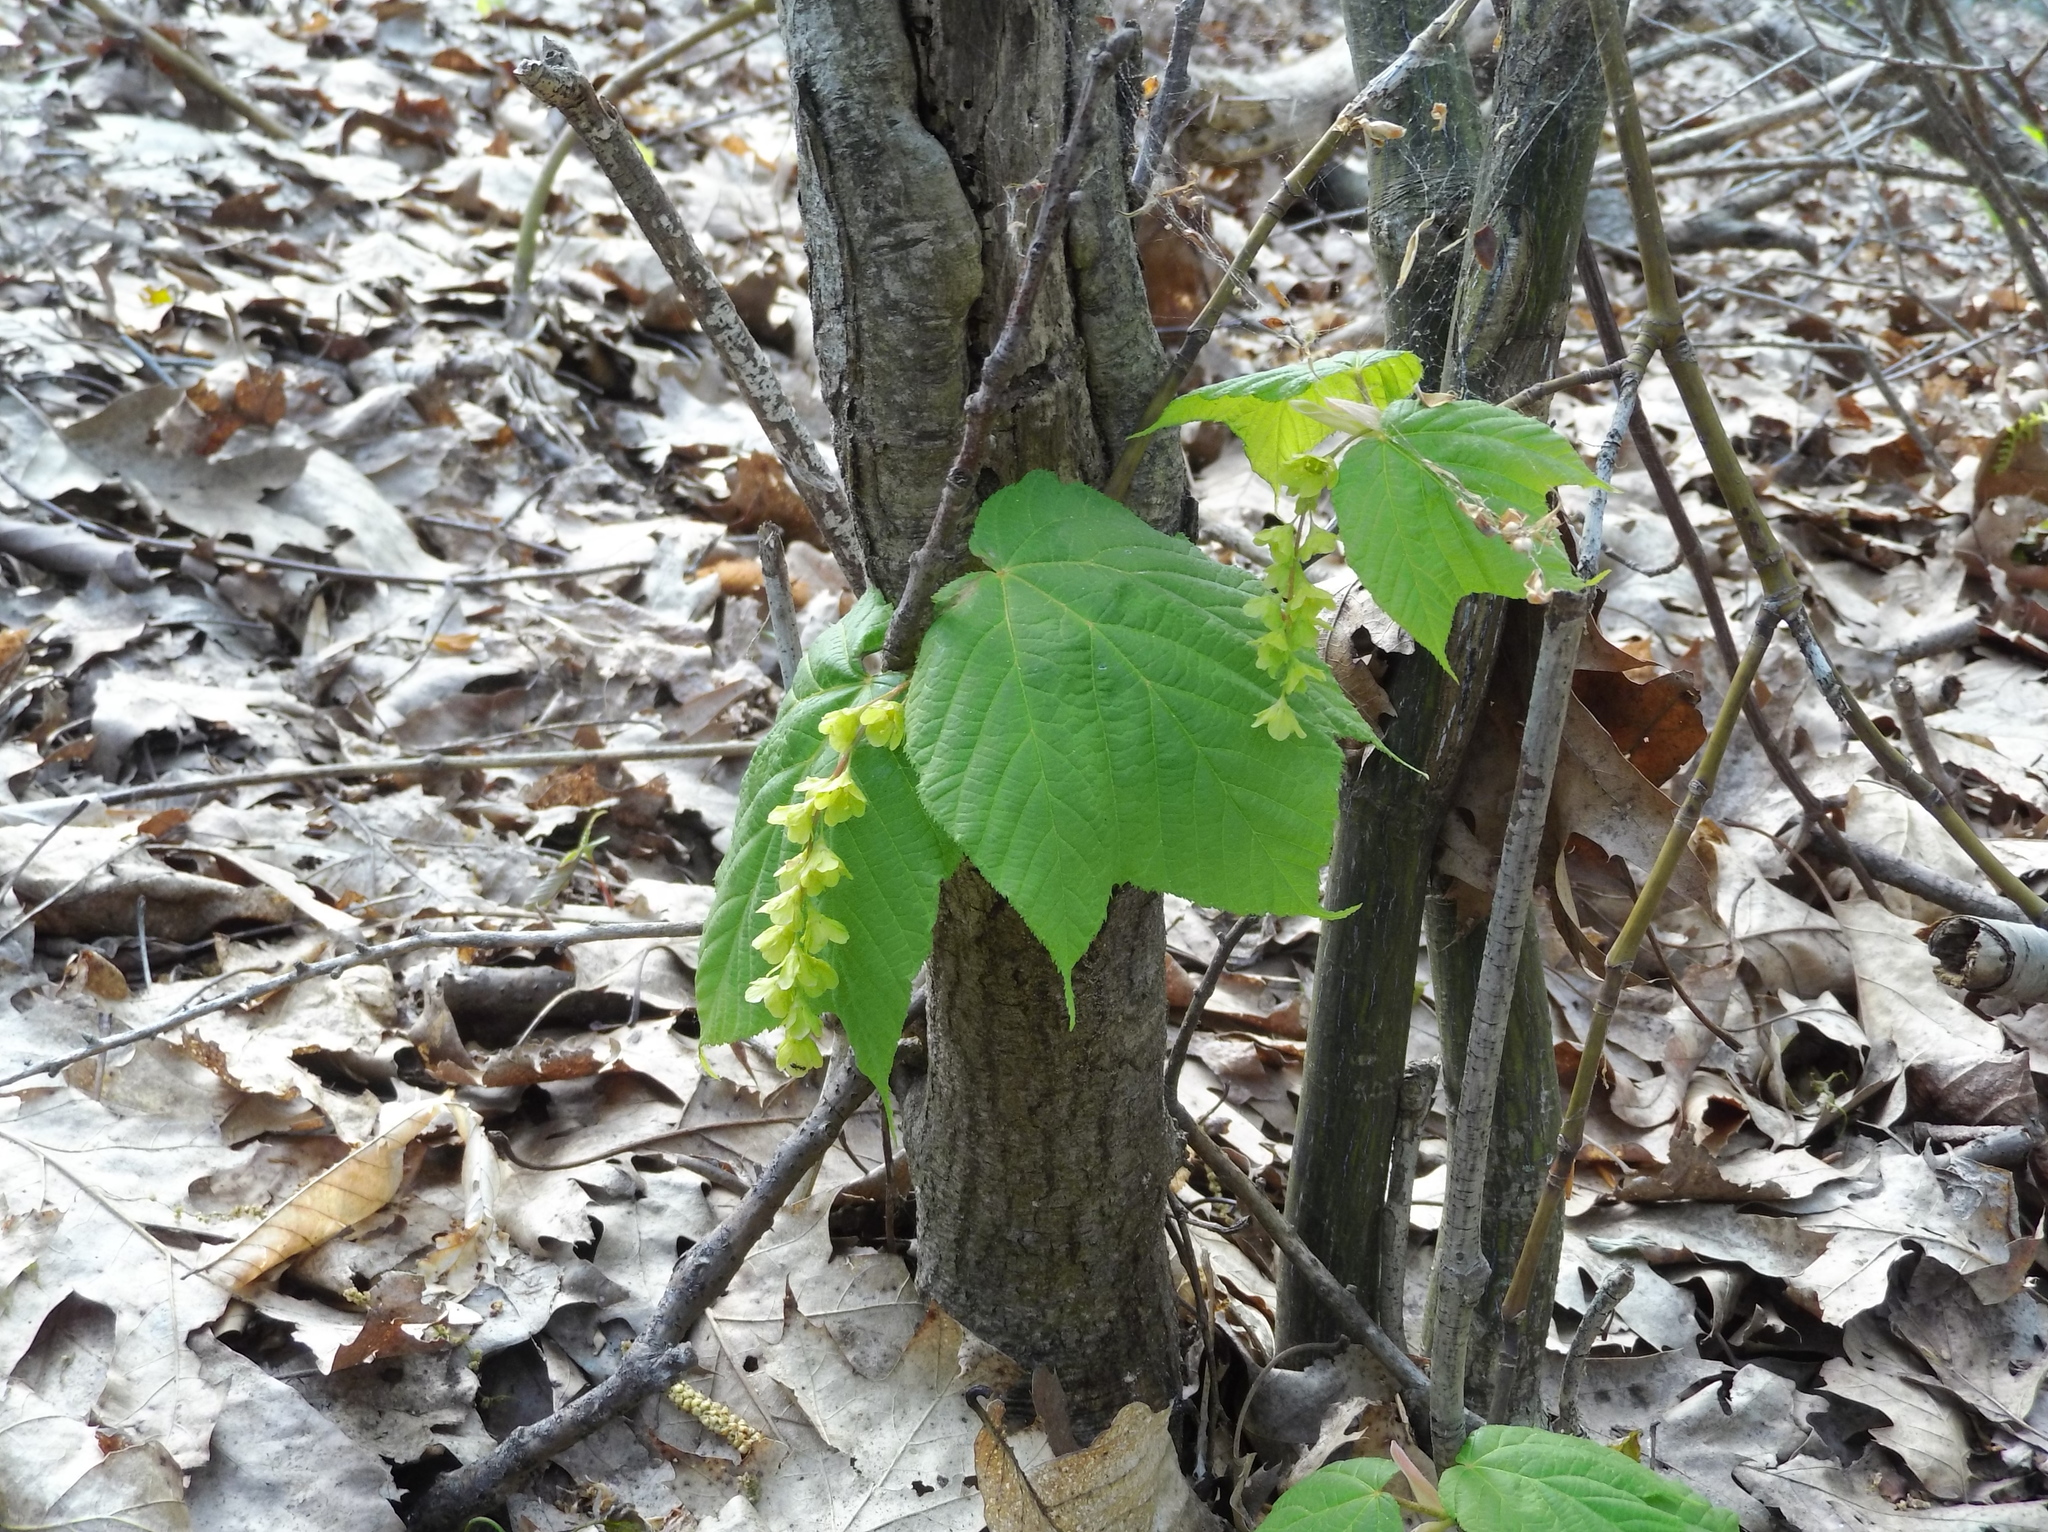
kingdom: Plantae
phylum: Tracheophyta
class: Magnoliopsida
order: Sapindales
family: Sapindaceae
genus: Acer
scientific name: Acer pensylvanicum
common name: Moosewood
